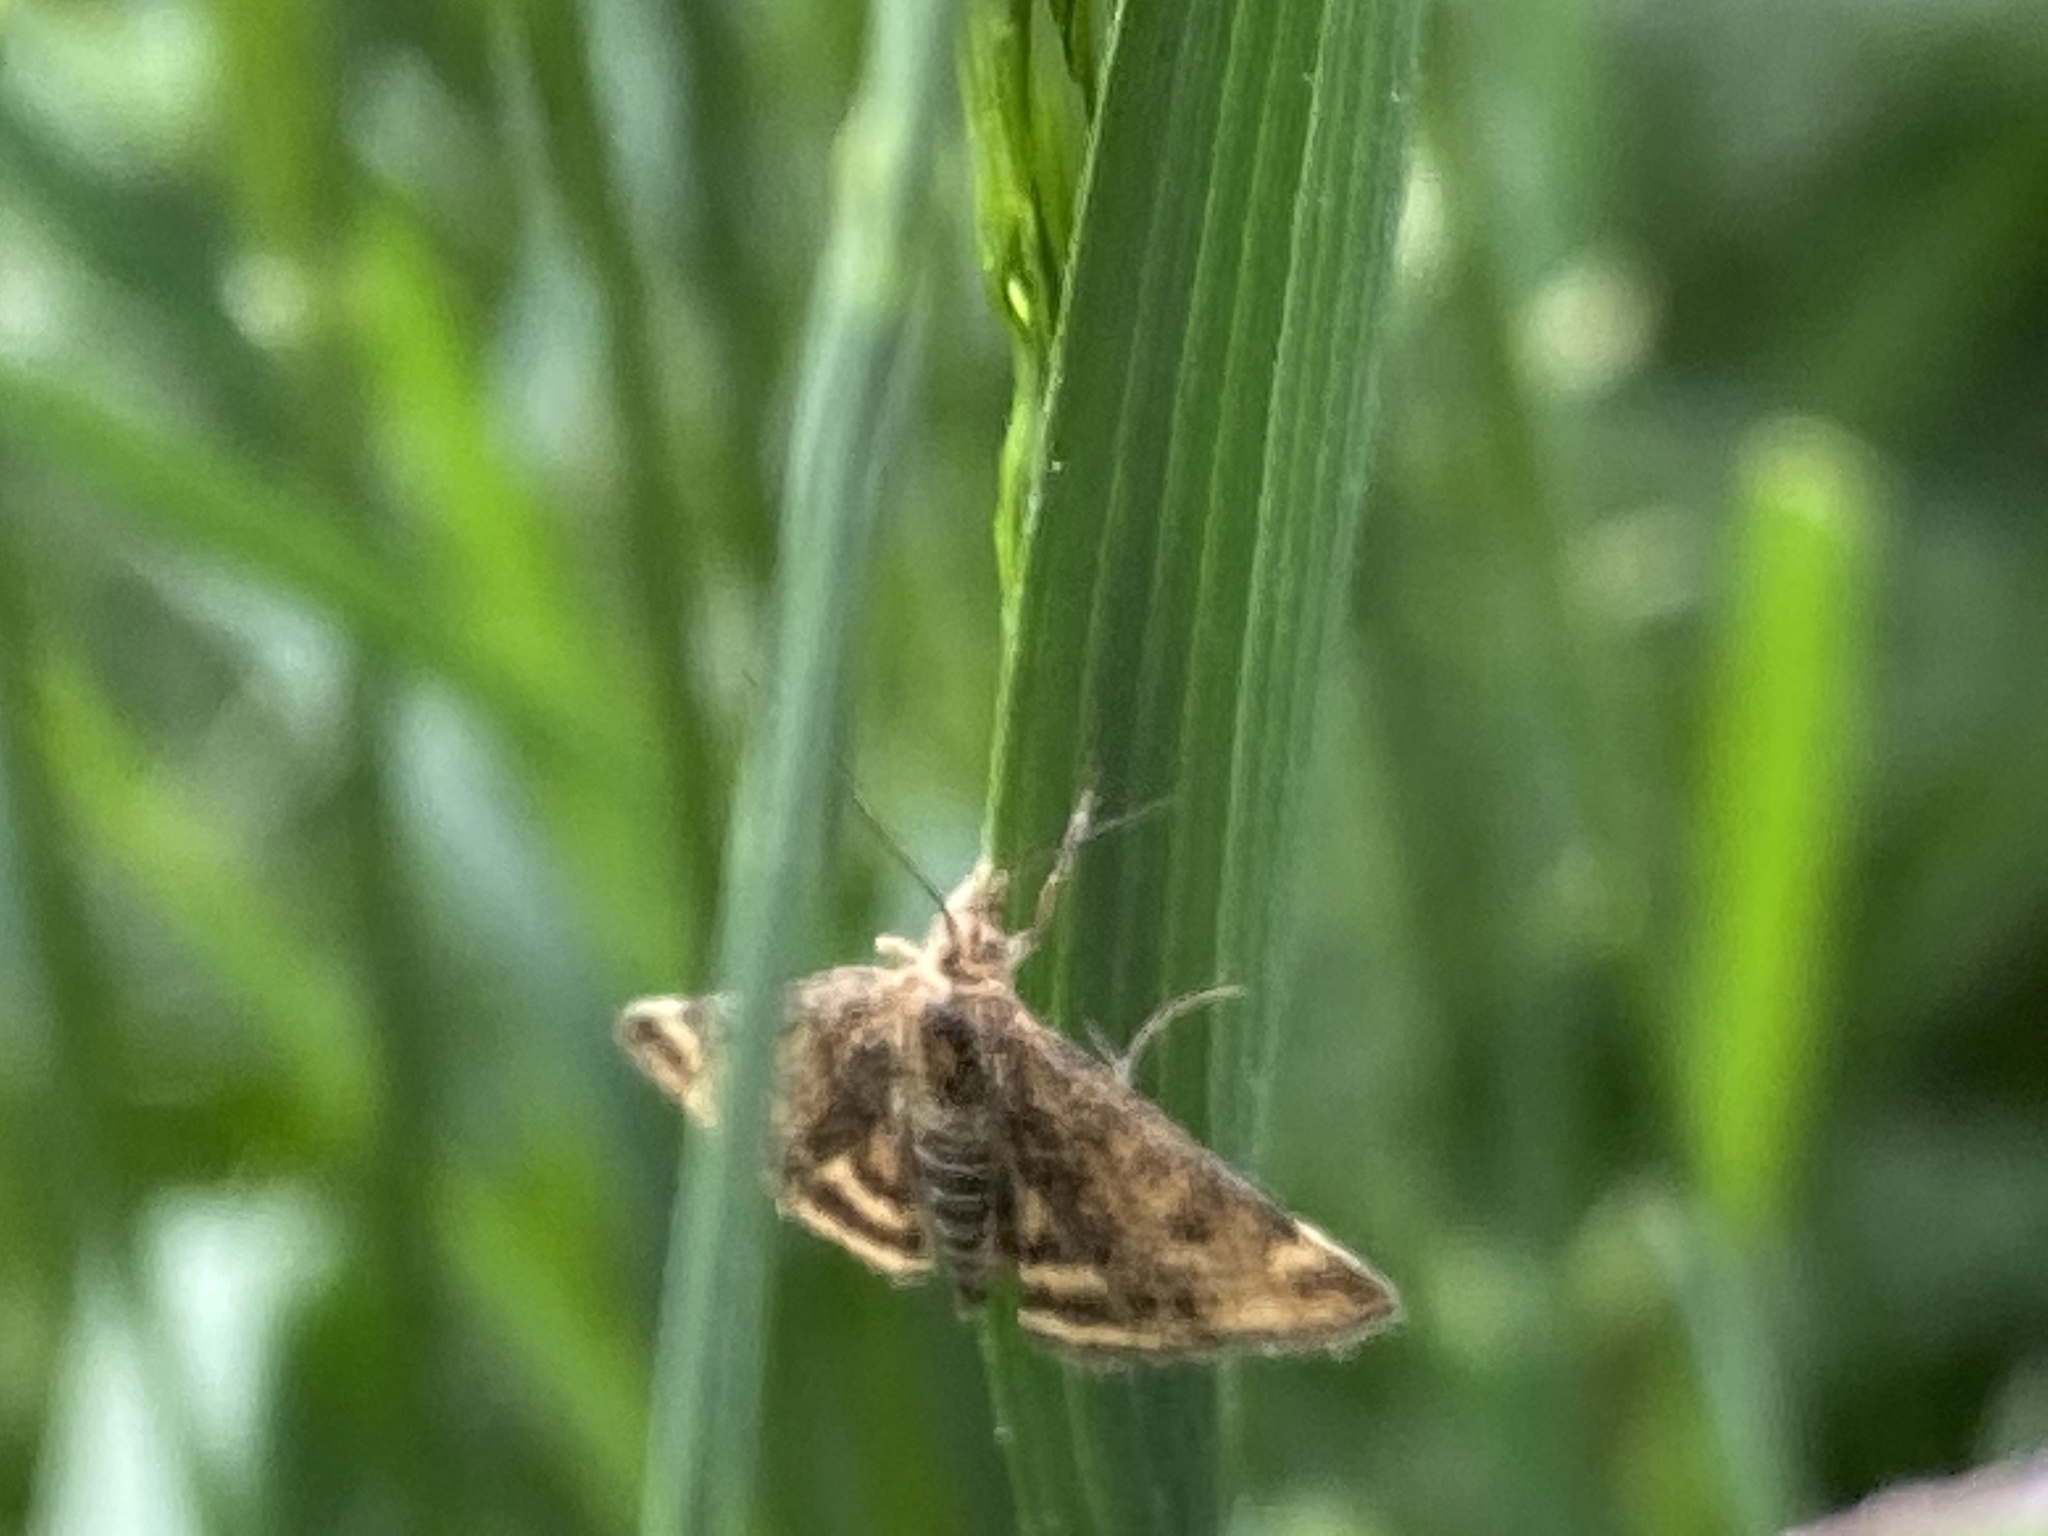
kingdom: Animalia
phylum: Arthropoda
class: Insecta
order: Lepidoptera
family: Crambidae
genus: Pyrausta
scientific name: Pyrausta despicata
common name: Straw-barred pearl
